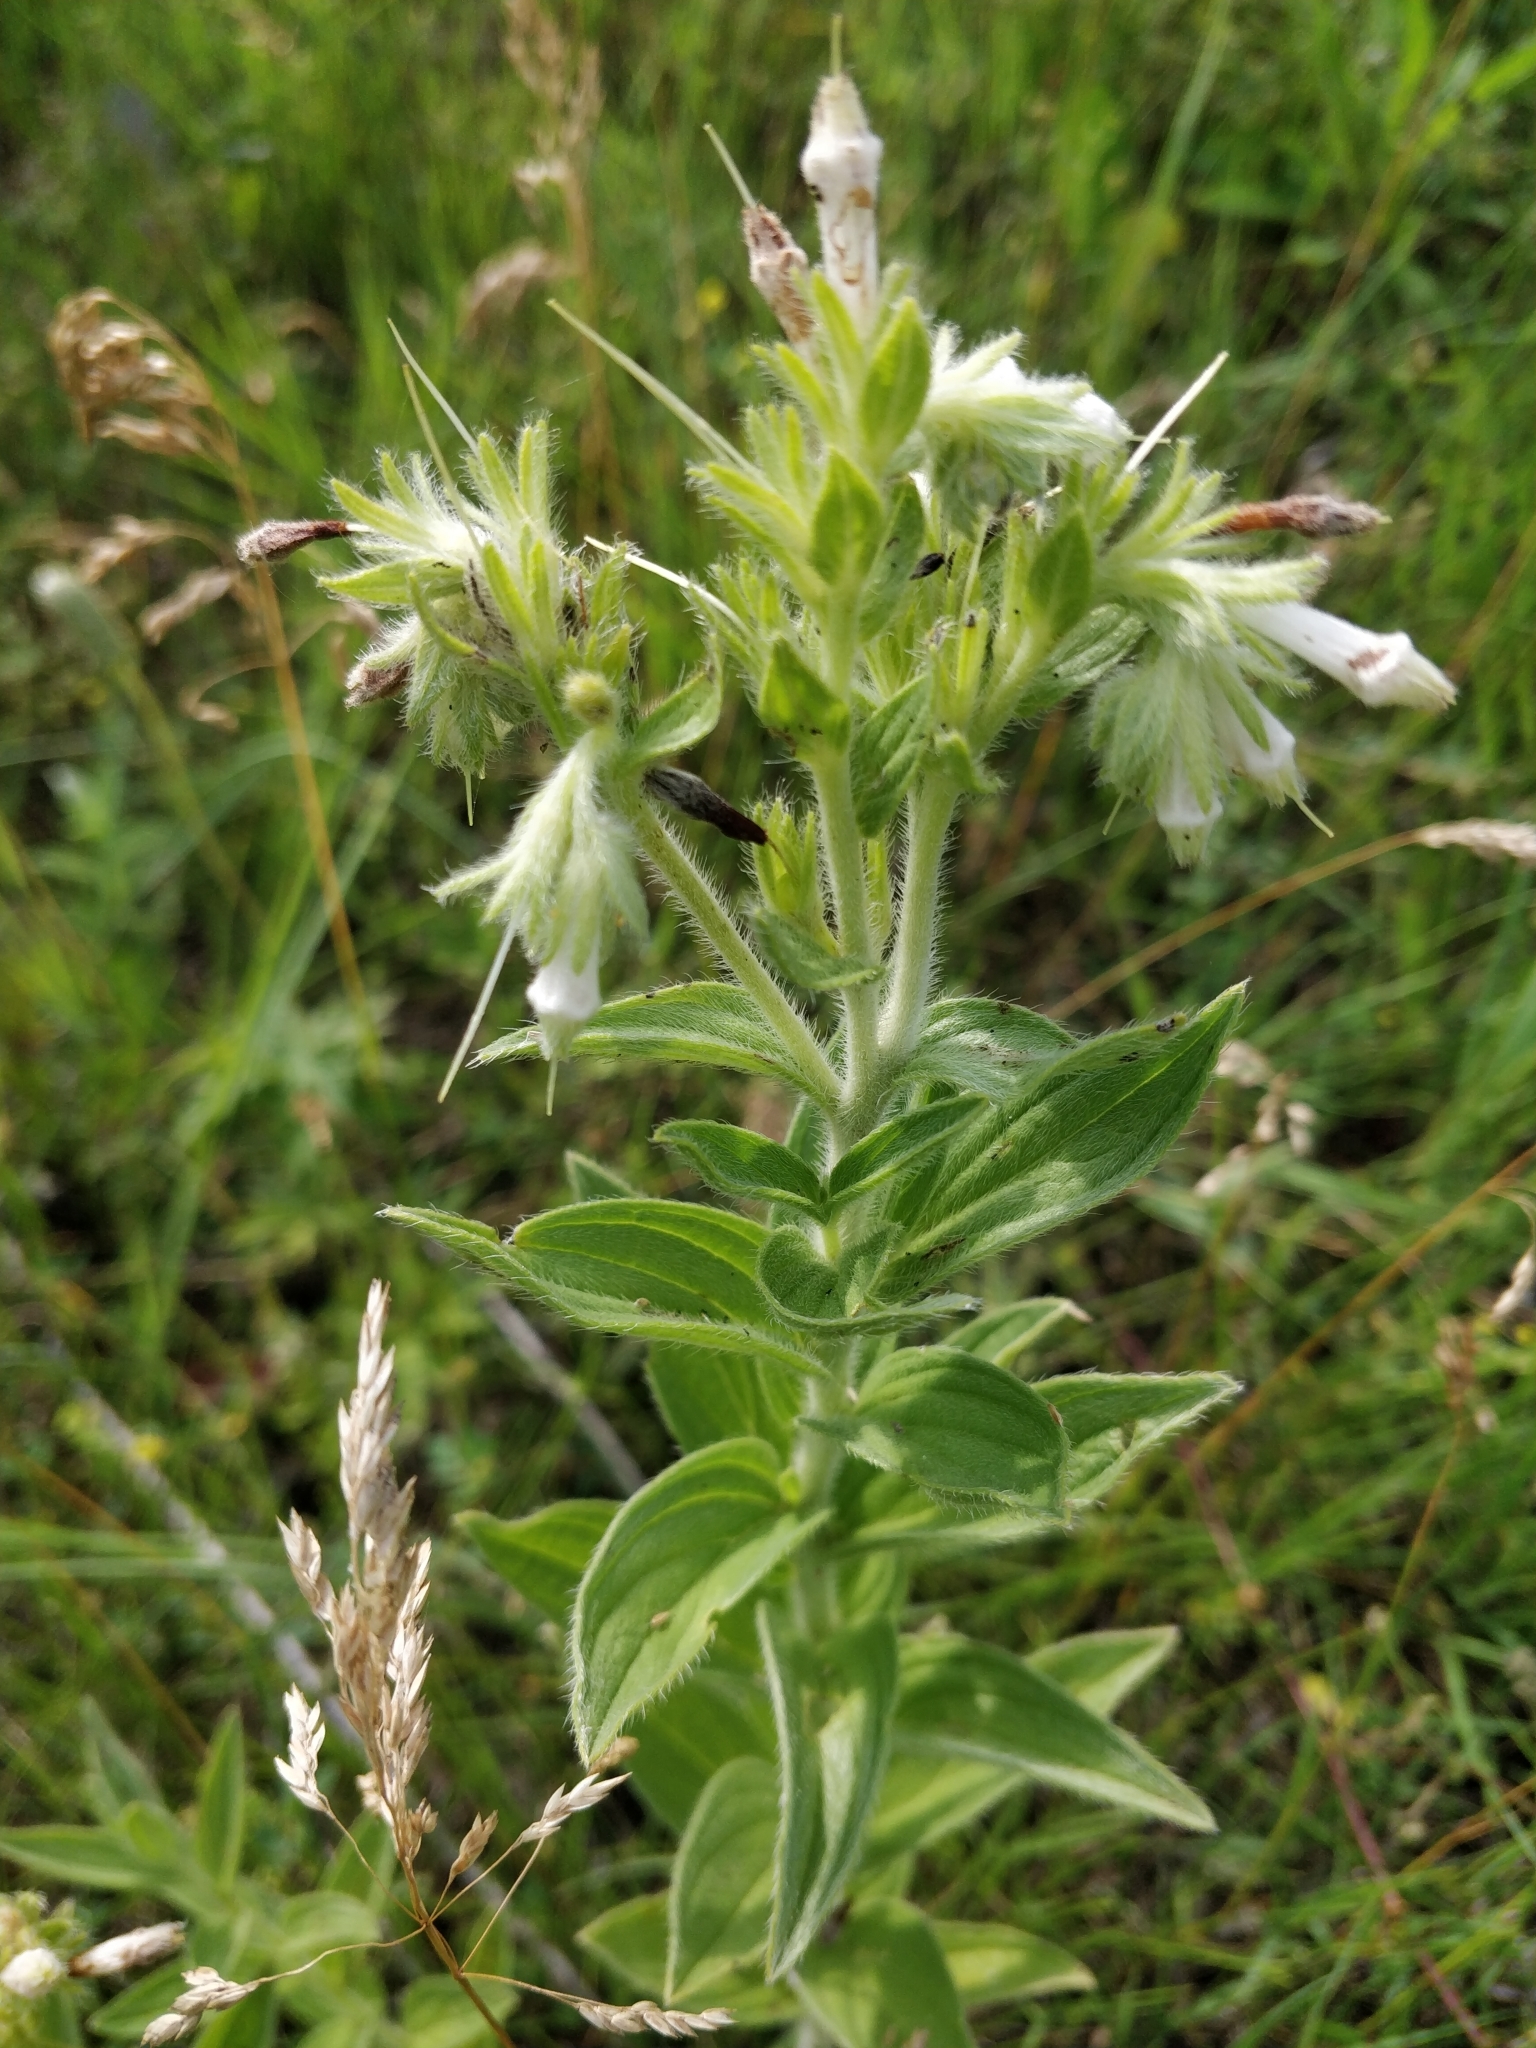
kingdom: Plantae
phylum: Tracheophyta
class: Magnoliopsida
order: Boraginales
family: Boraginaceae
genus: Lithospermum
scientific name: Lithospermum occidentale
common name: Western false gromwell
